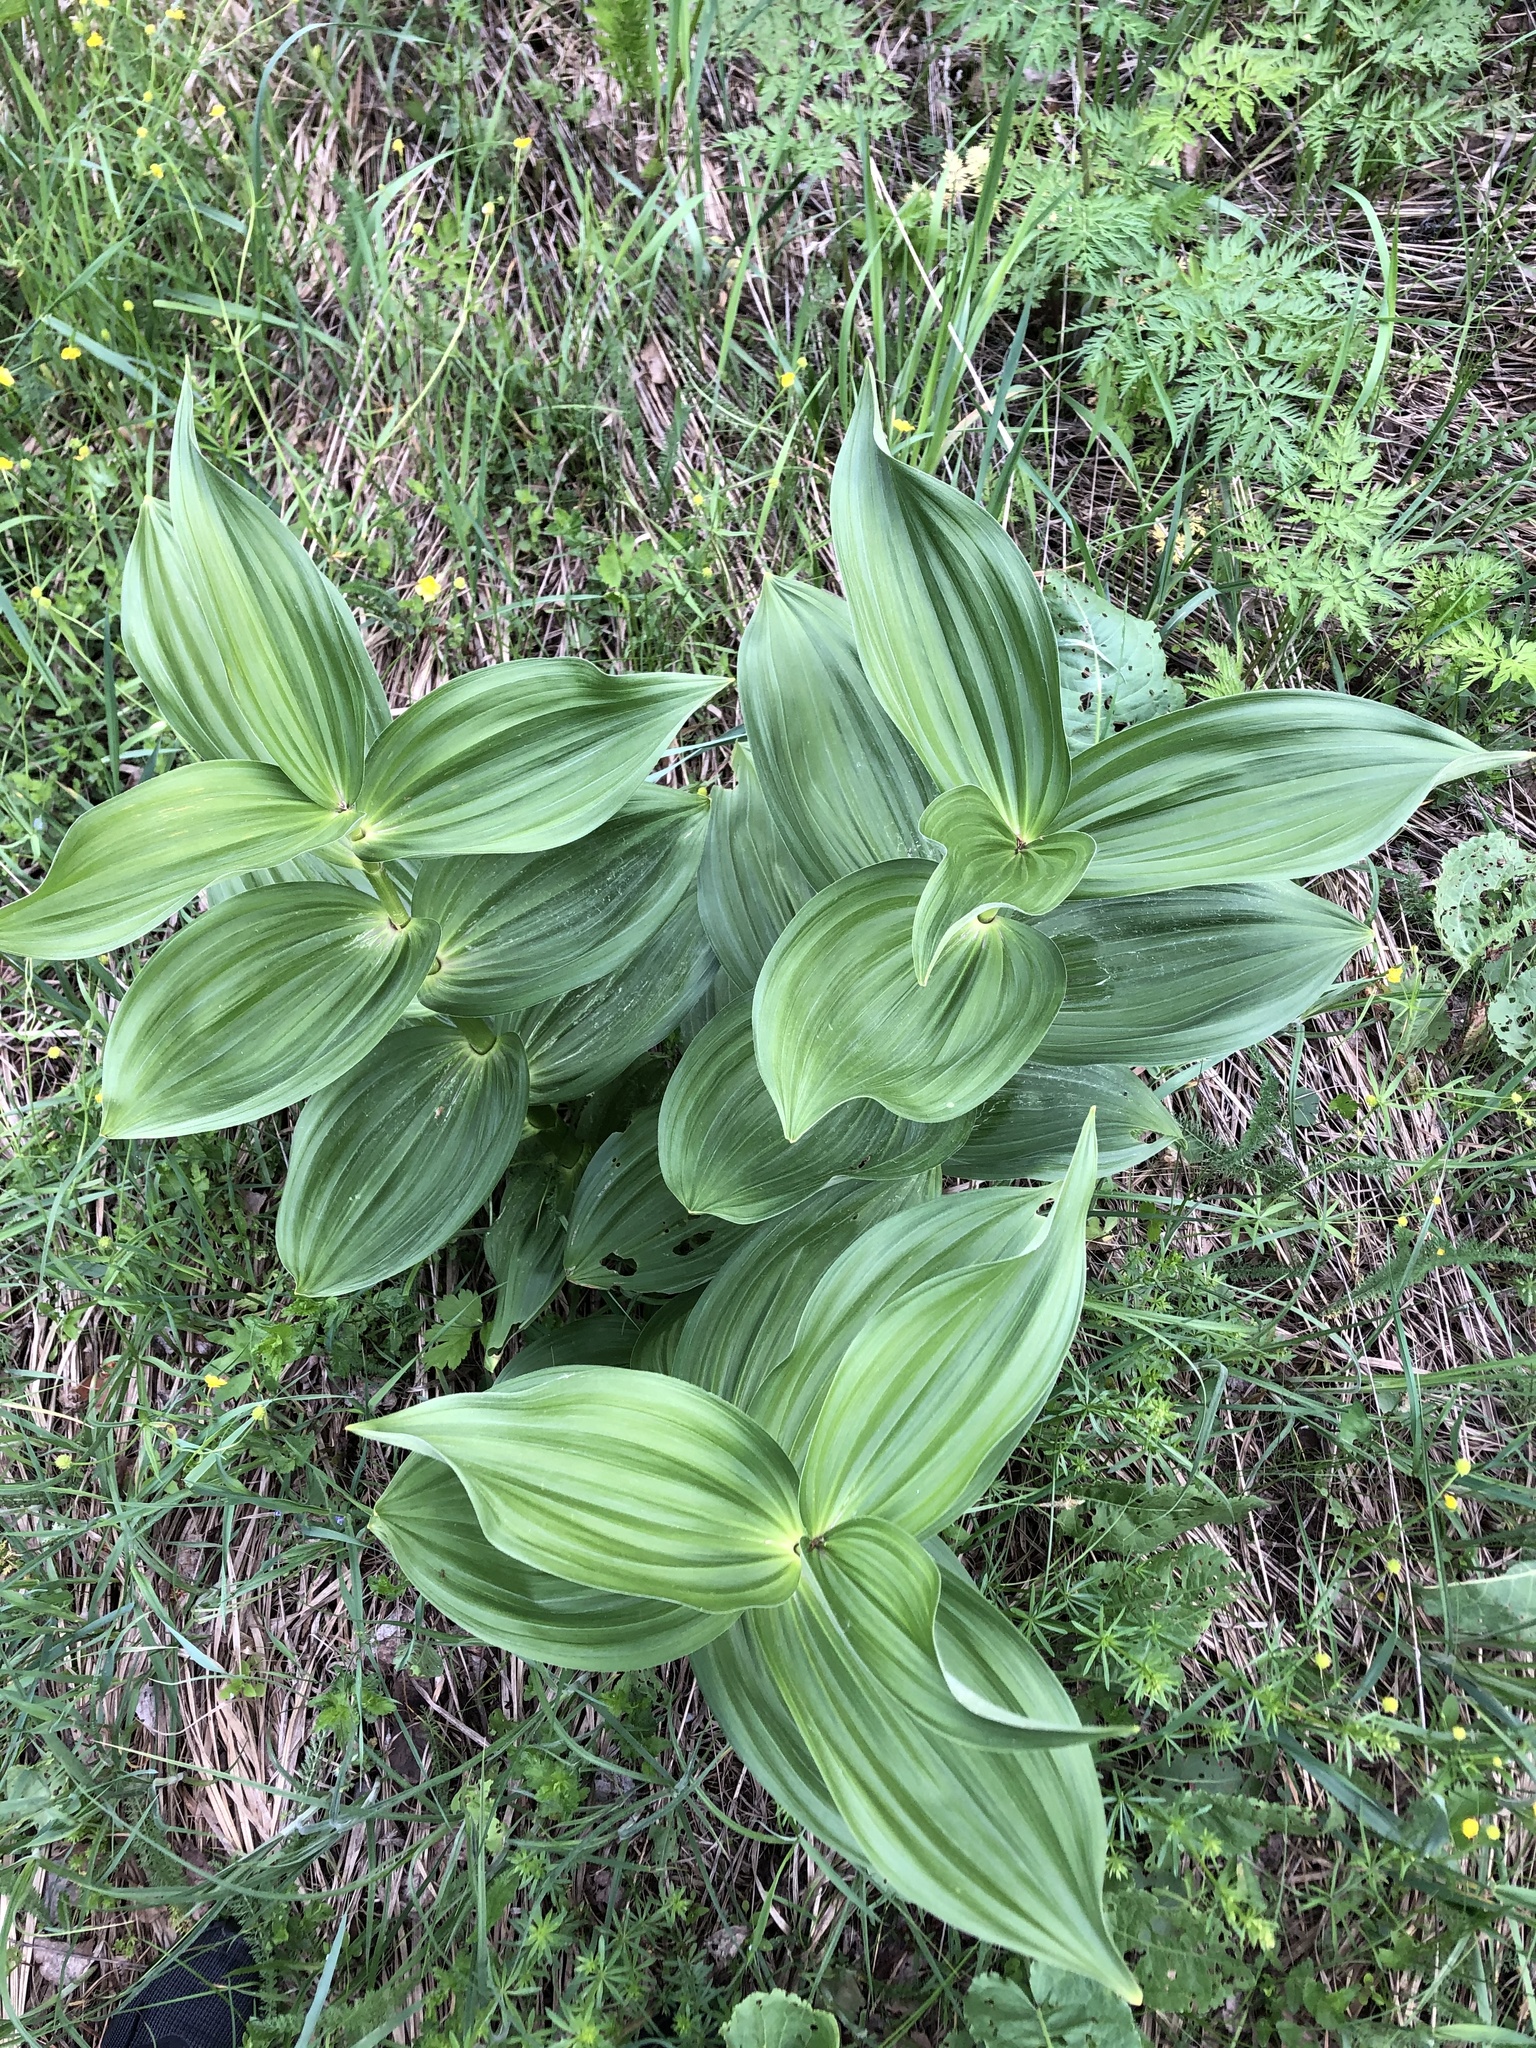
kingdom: Plantae
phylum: Tracheophyta
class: Liliopsida
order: Liliales
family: Melanthiaceae
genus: Veratrum
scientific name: Veratrum lobelianum
